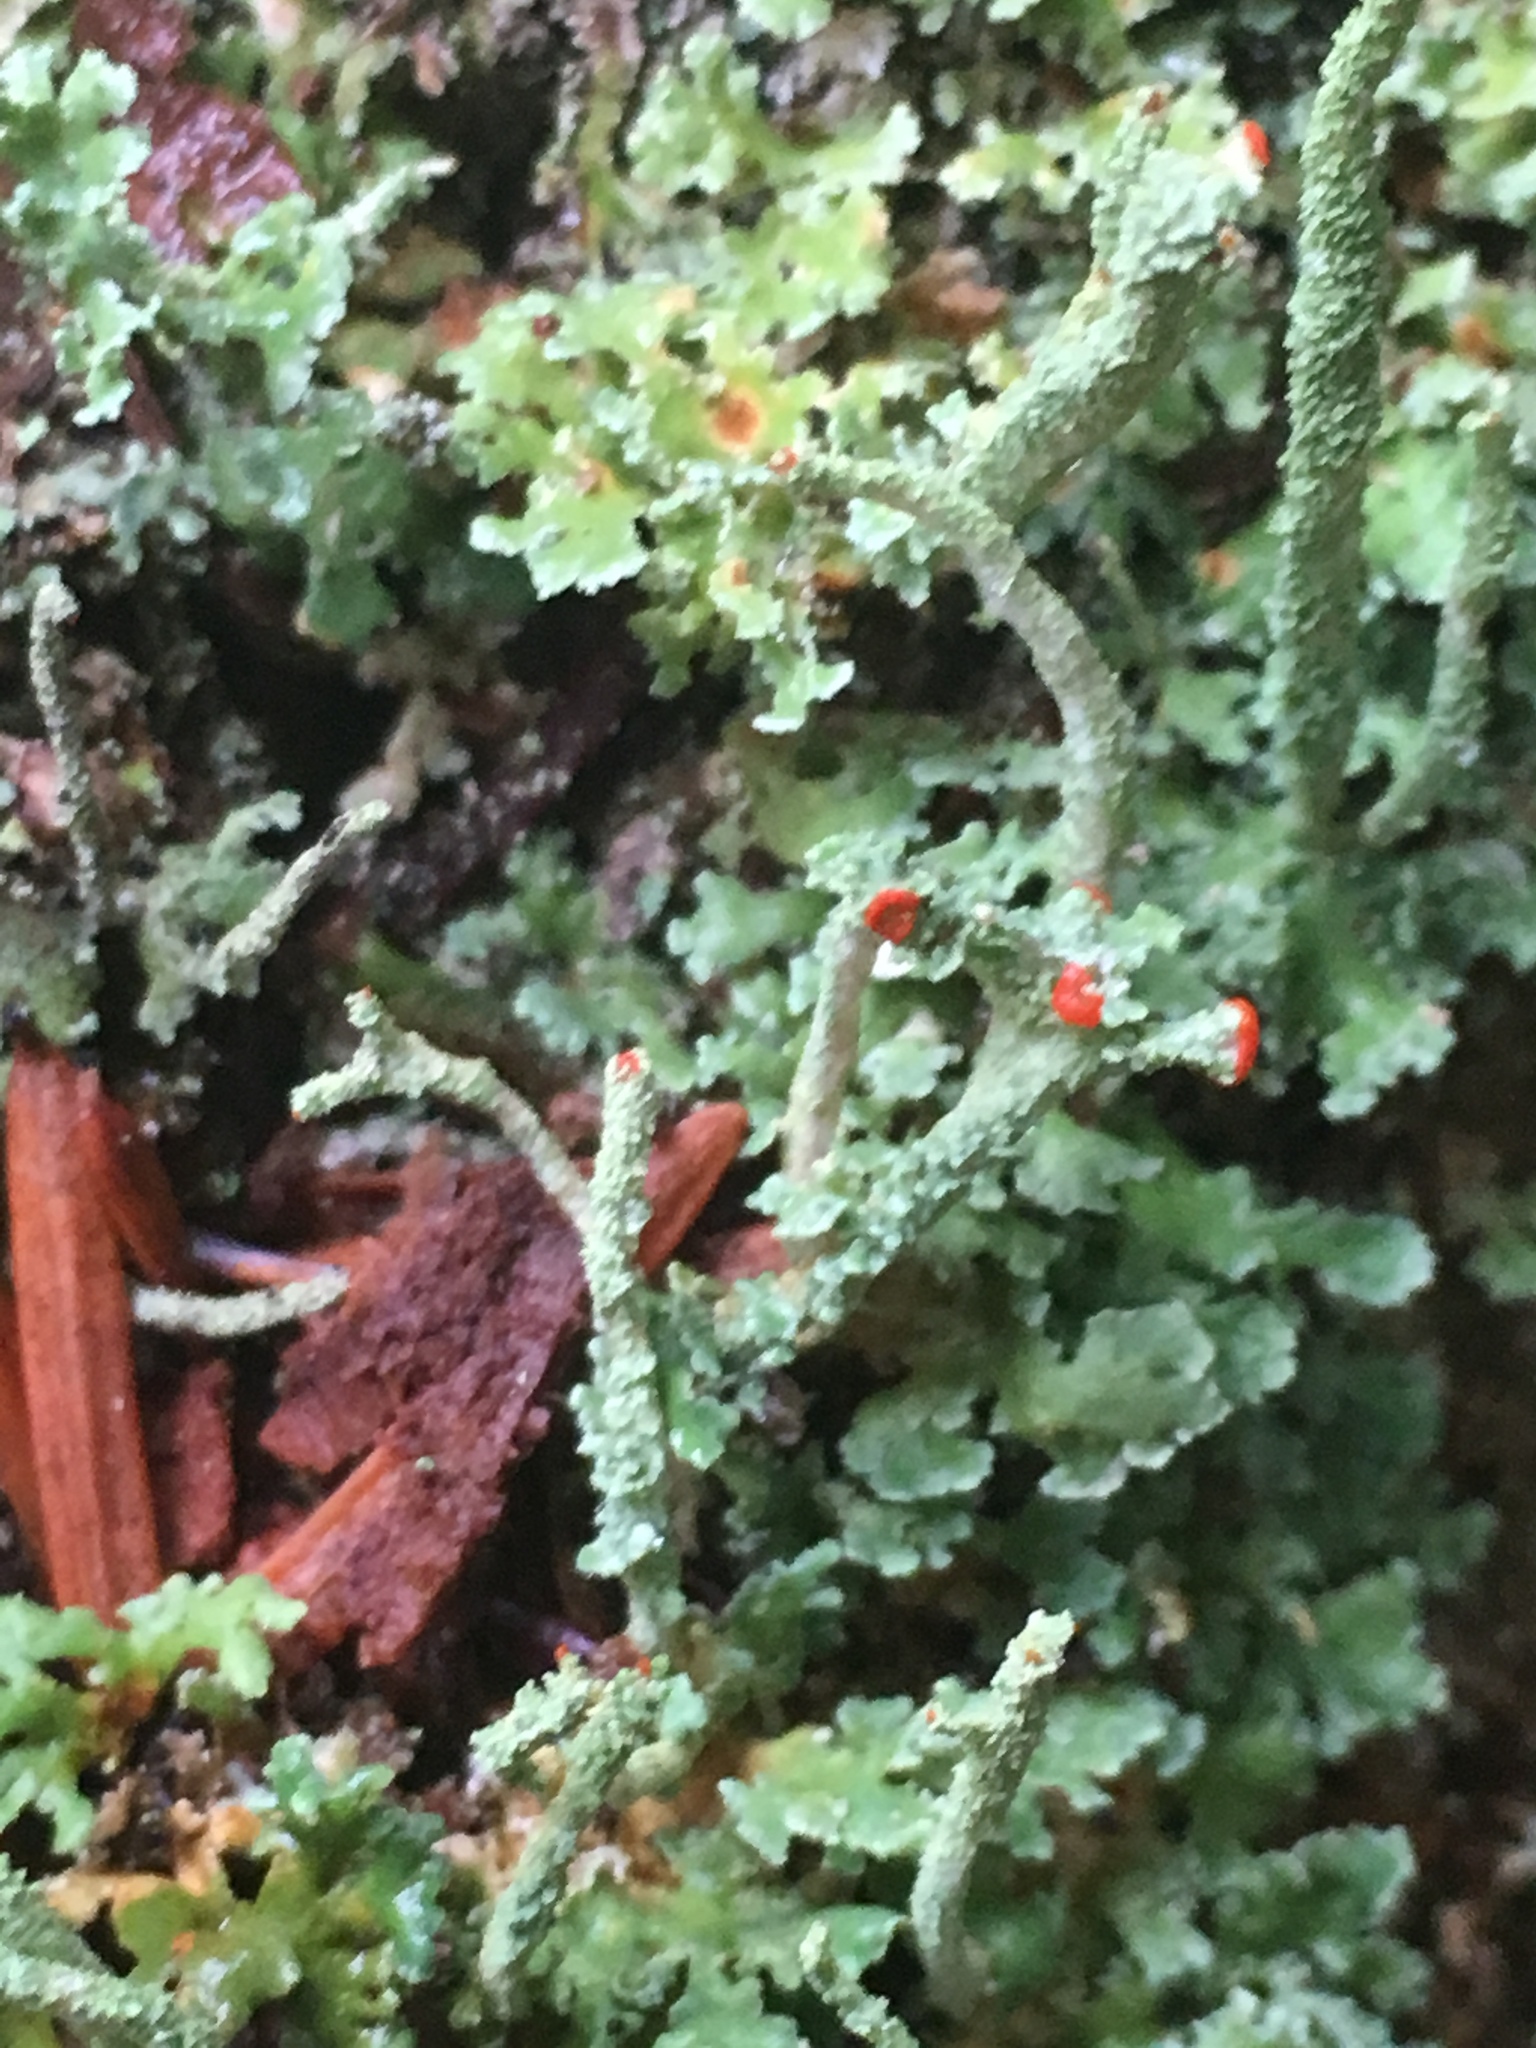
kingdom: Fungi
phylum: Ascomycota
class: Lecanoromycetes
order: Lecanorales
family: Cladoniaceae
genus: Cladonia
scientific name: Cladonia bellidiflora
